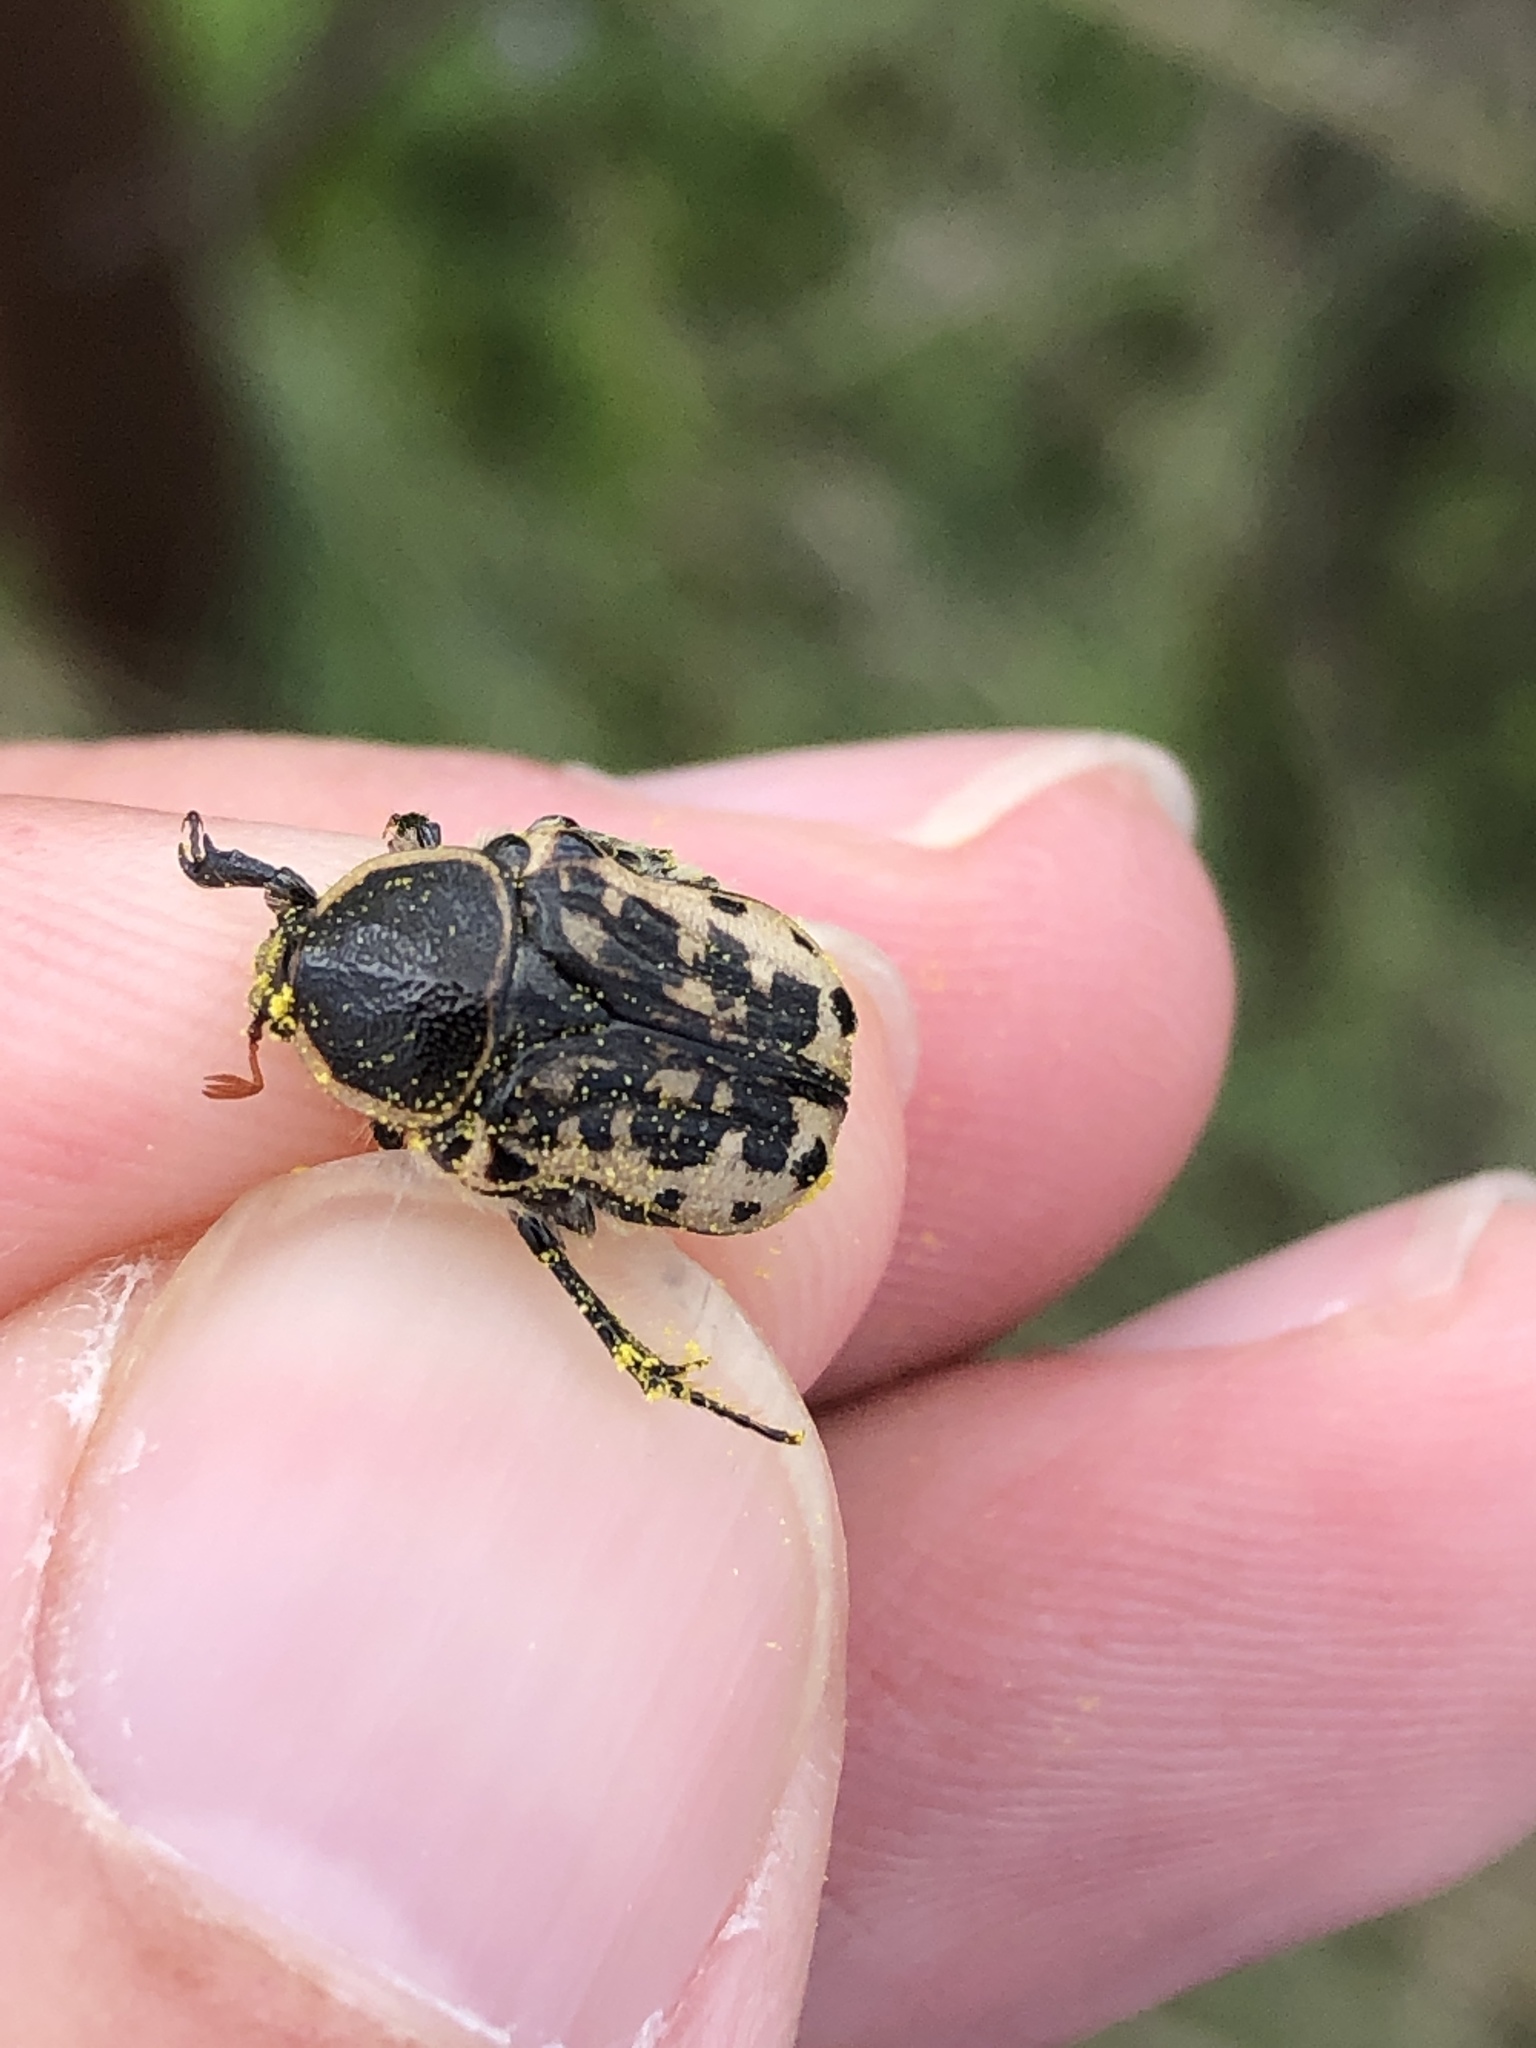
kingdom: Animalia
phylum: Arthropoda
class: Insecta
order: Coleoptera
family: Scarabaeidae
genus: Euphoria
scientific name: Euphoria kernii
